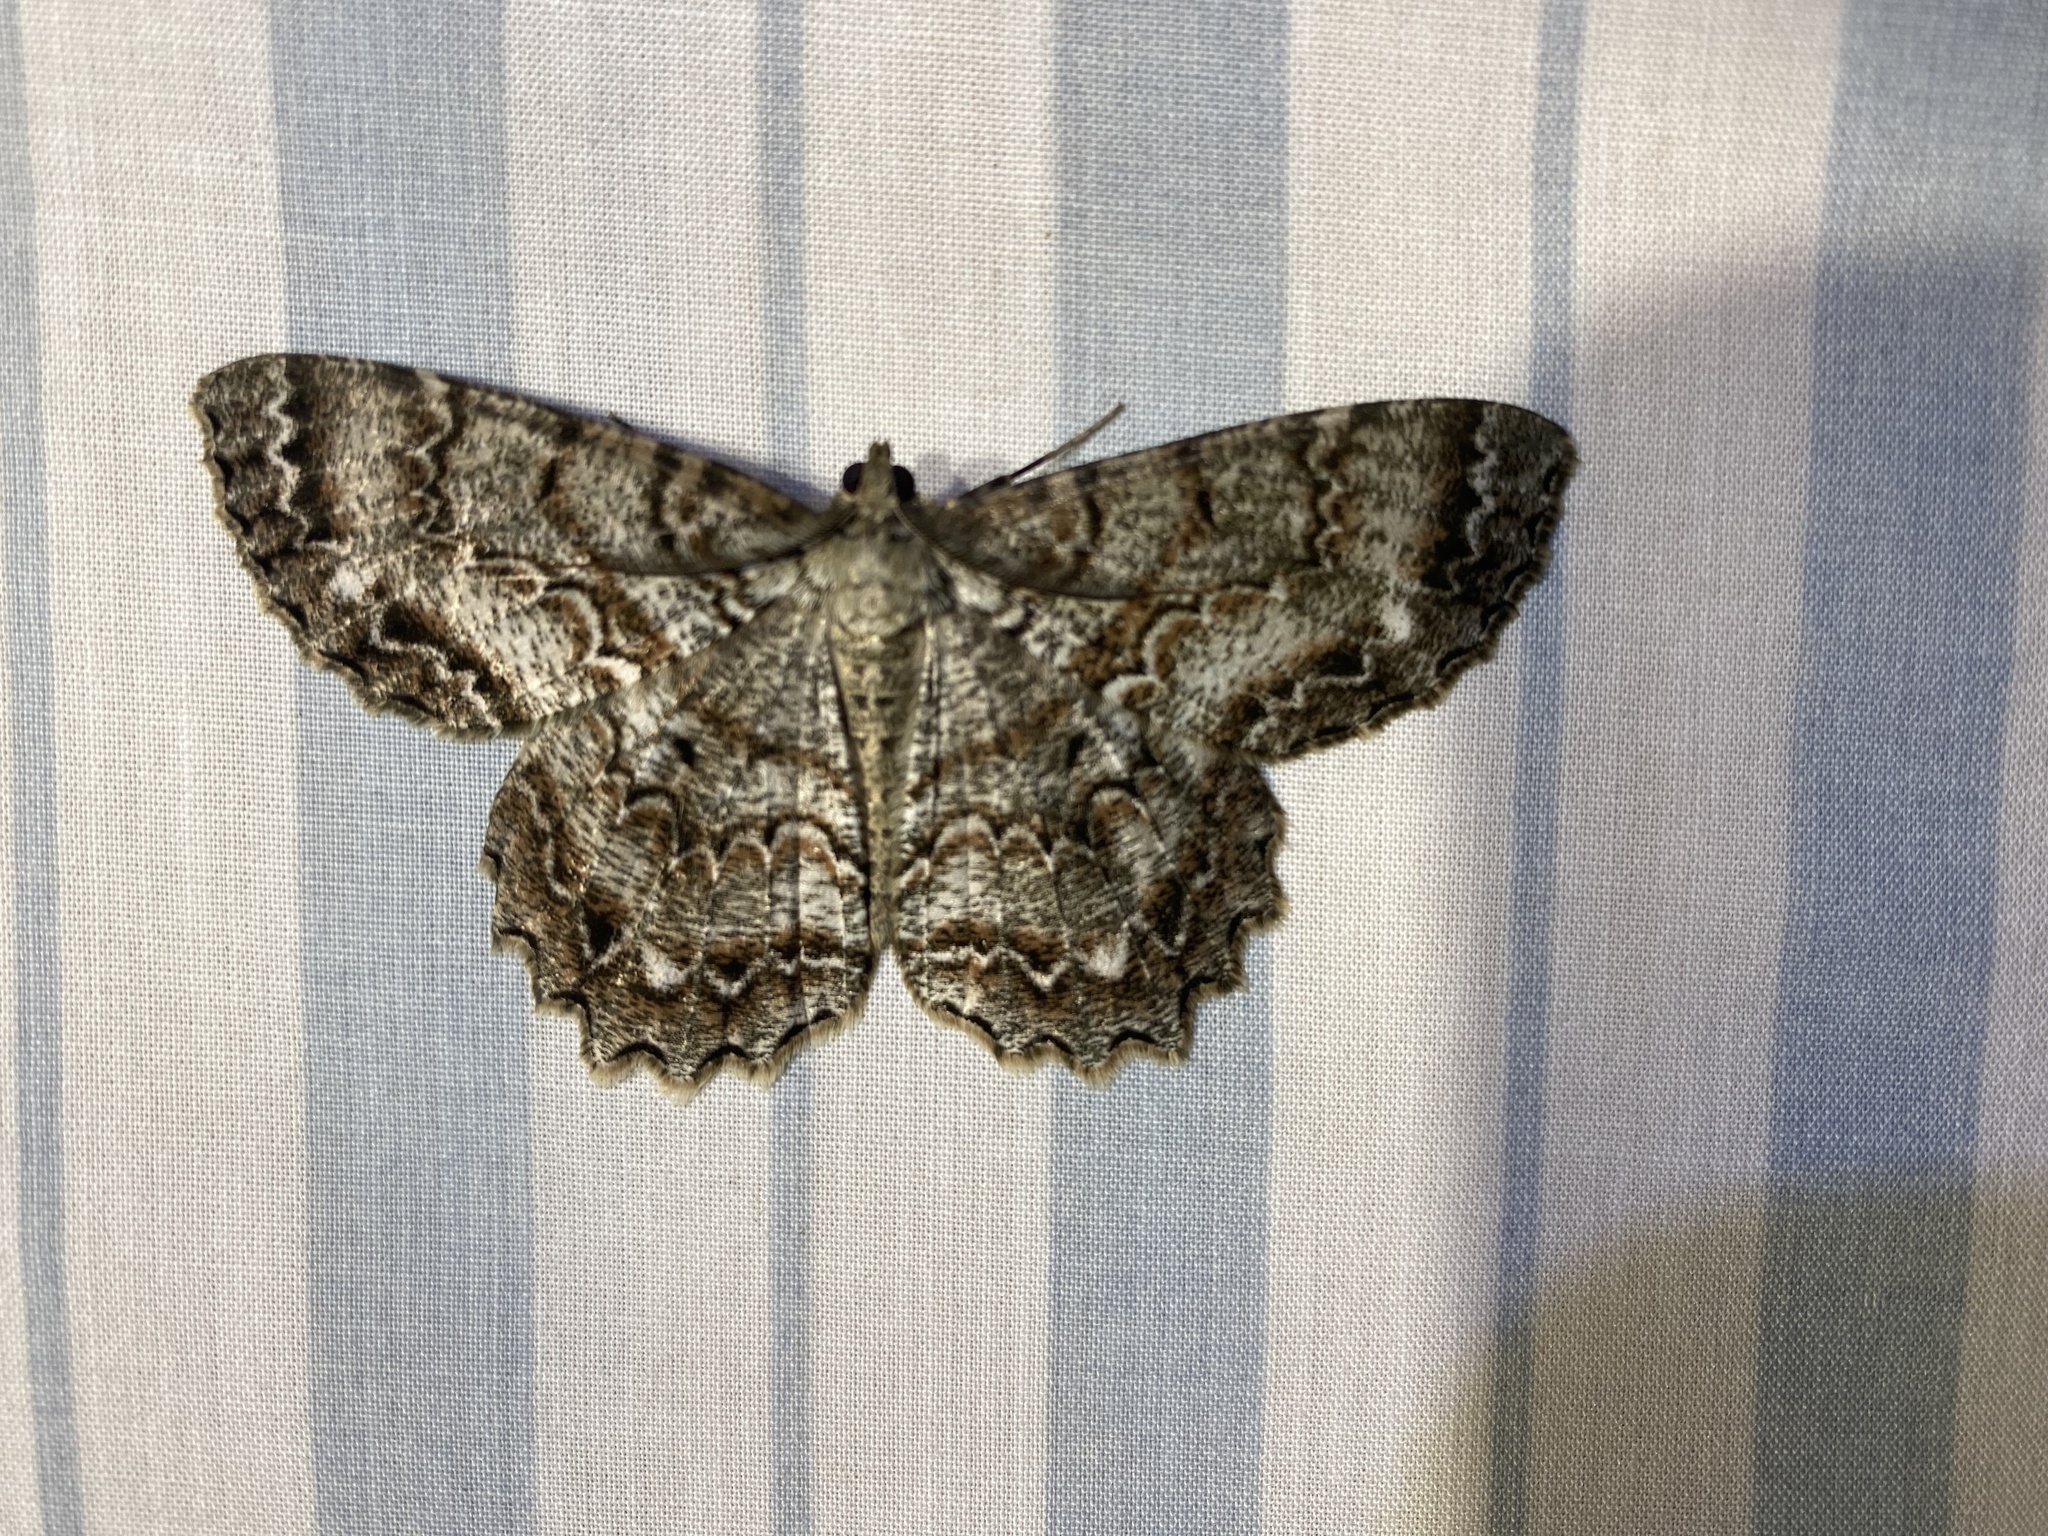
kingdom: Animalia
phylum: Arthropoda
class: Insecta
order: Lepidoptera
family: Geometridae
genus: Epimecis
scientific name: Epimecis hortaria
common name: Tulip-tree beauty
